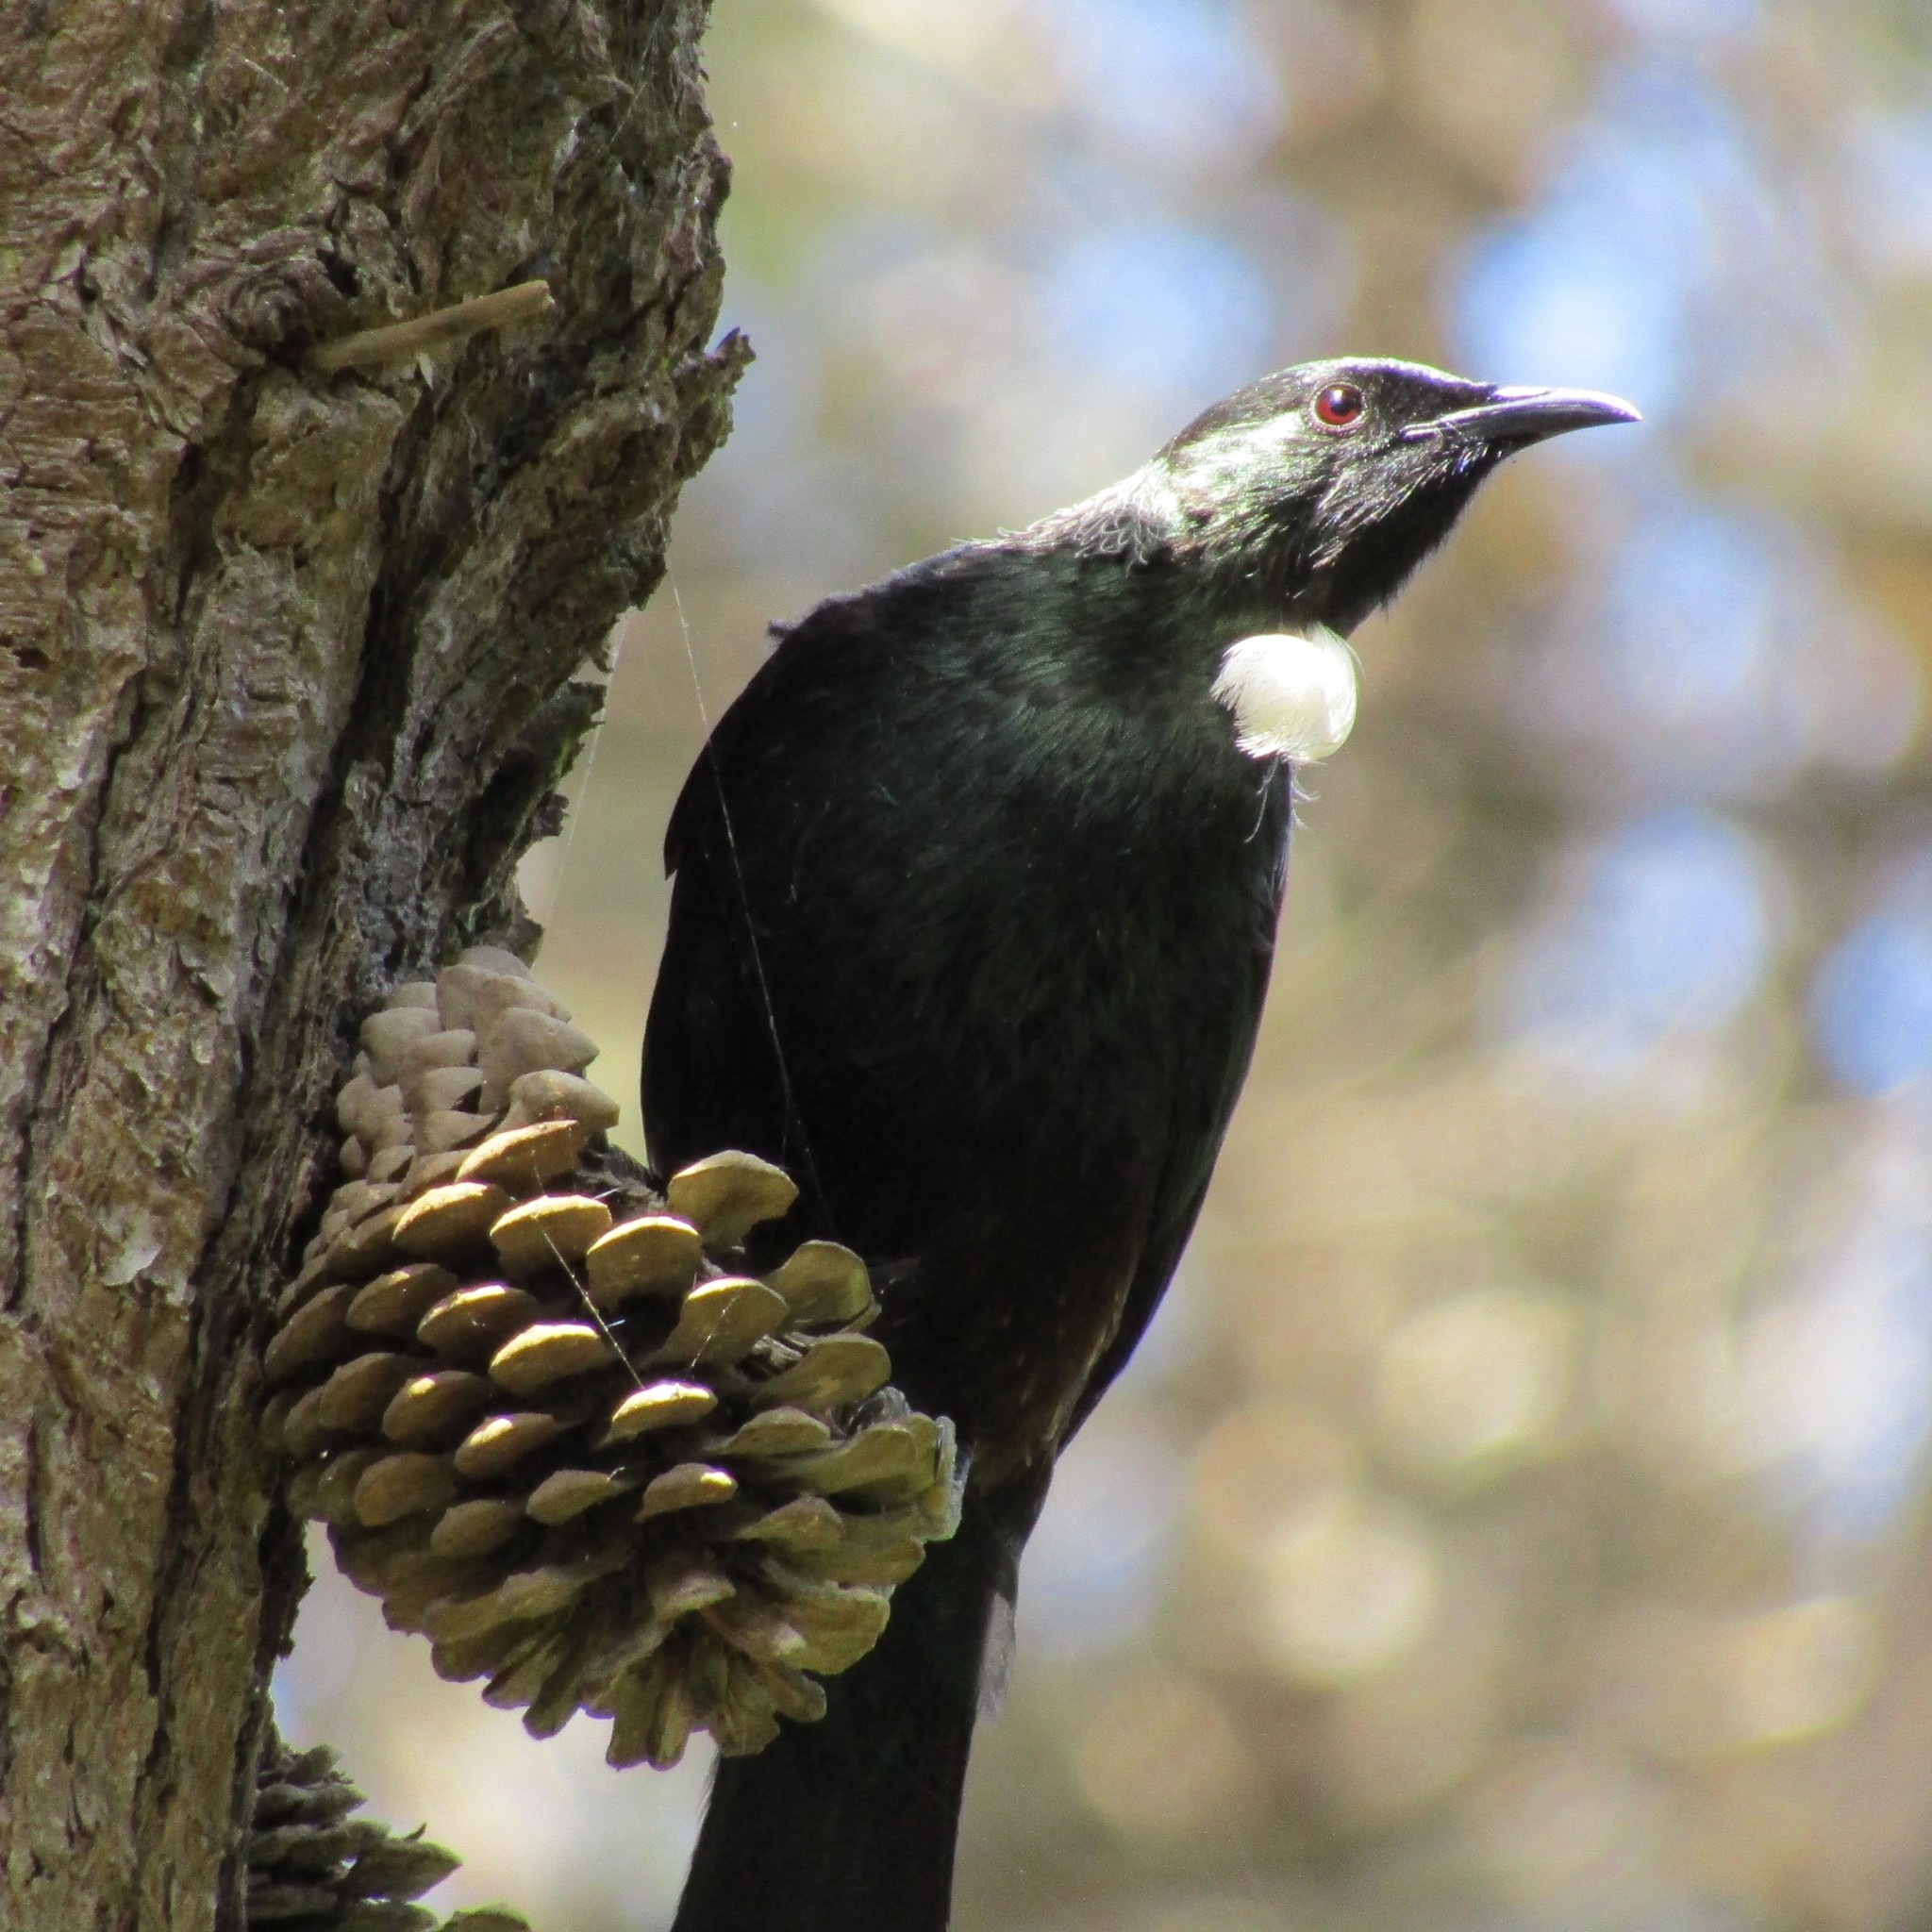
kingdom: Animalia
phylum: Chordata
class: Aves
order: Passeriformes
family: Meliphagidae
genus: Prosthemadera
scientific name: Prosthemadera novaeseelandiae
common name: Tui
